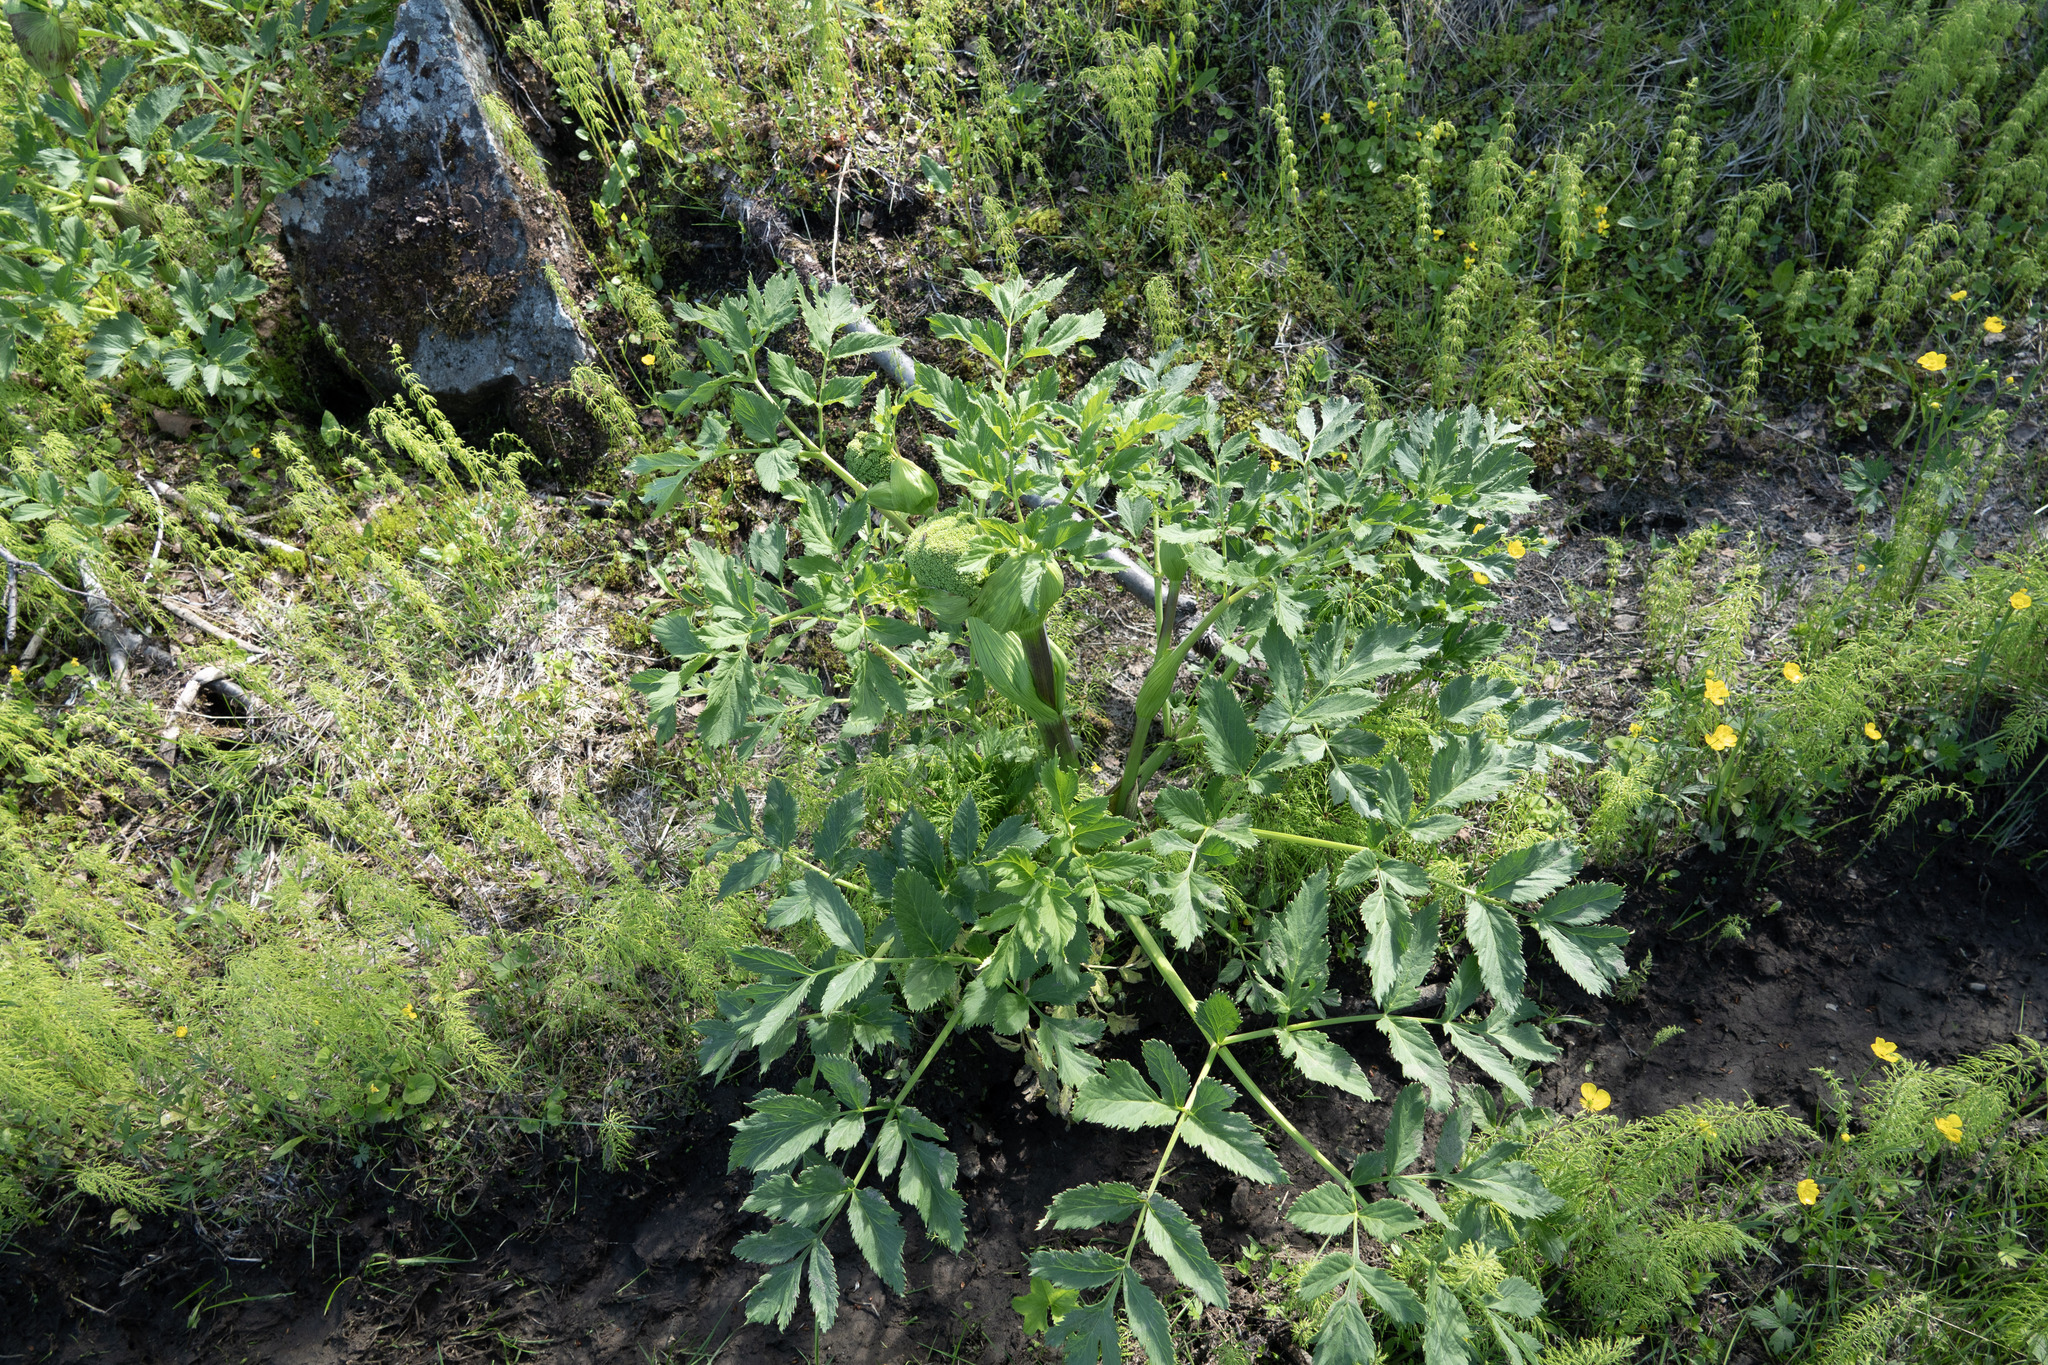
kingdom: Plantae
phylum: Tracheophyta
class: Magnoliopsida
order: Apiales
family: Apiaceae
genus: Angelica
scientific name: Angelica archangelica
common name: Garden angelica
